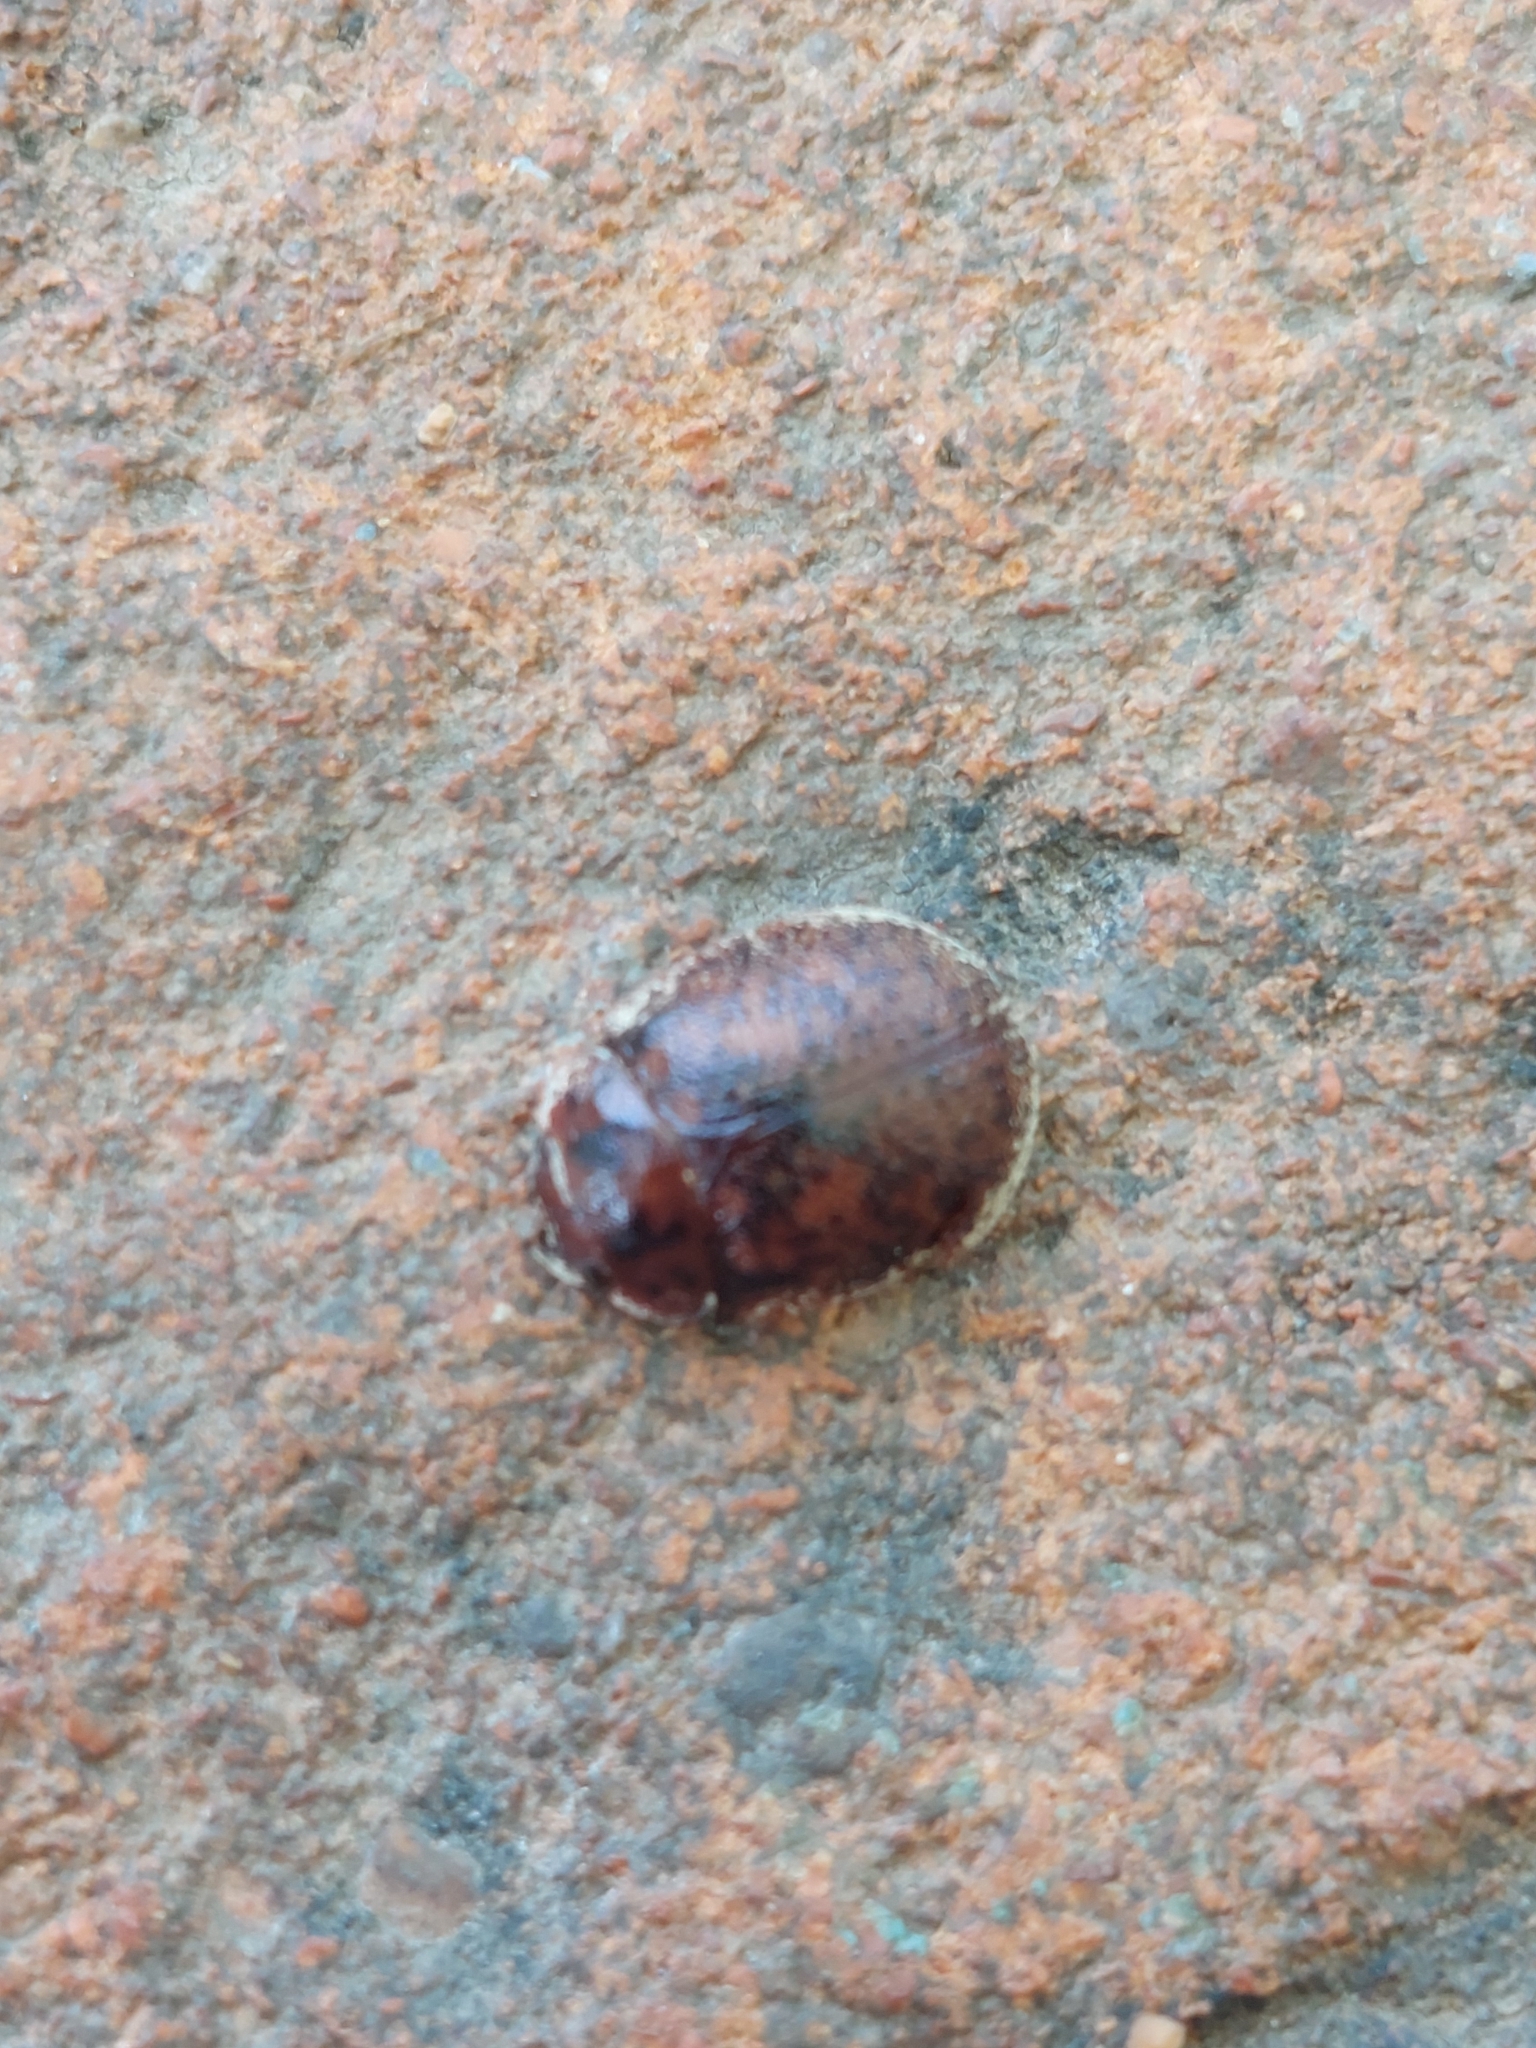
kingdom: Animalia
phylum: Arthropoda
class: Insecta
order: Coleoptera
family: Chrysomelidae
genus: Trachymela
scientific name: Trachymela sloanei
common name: Australian tortoise beetle
